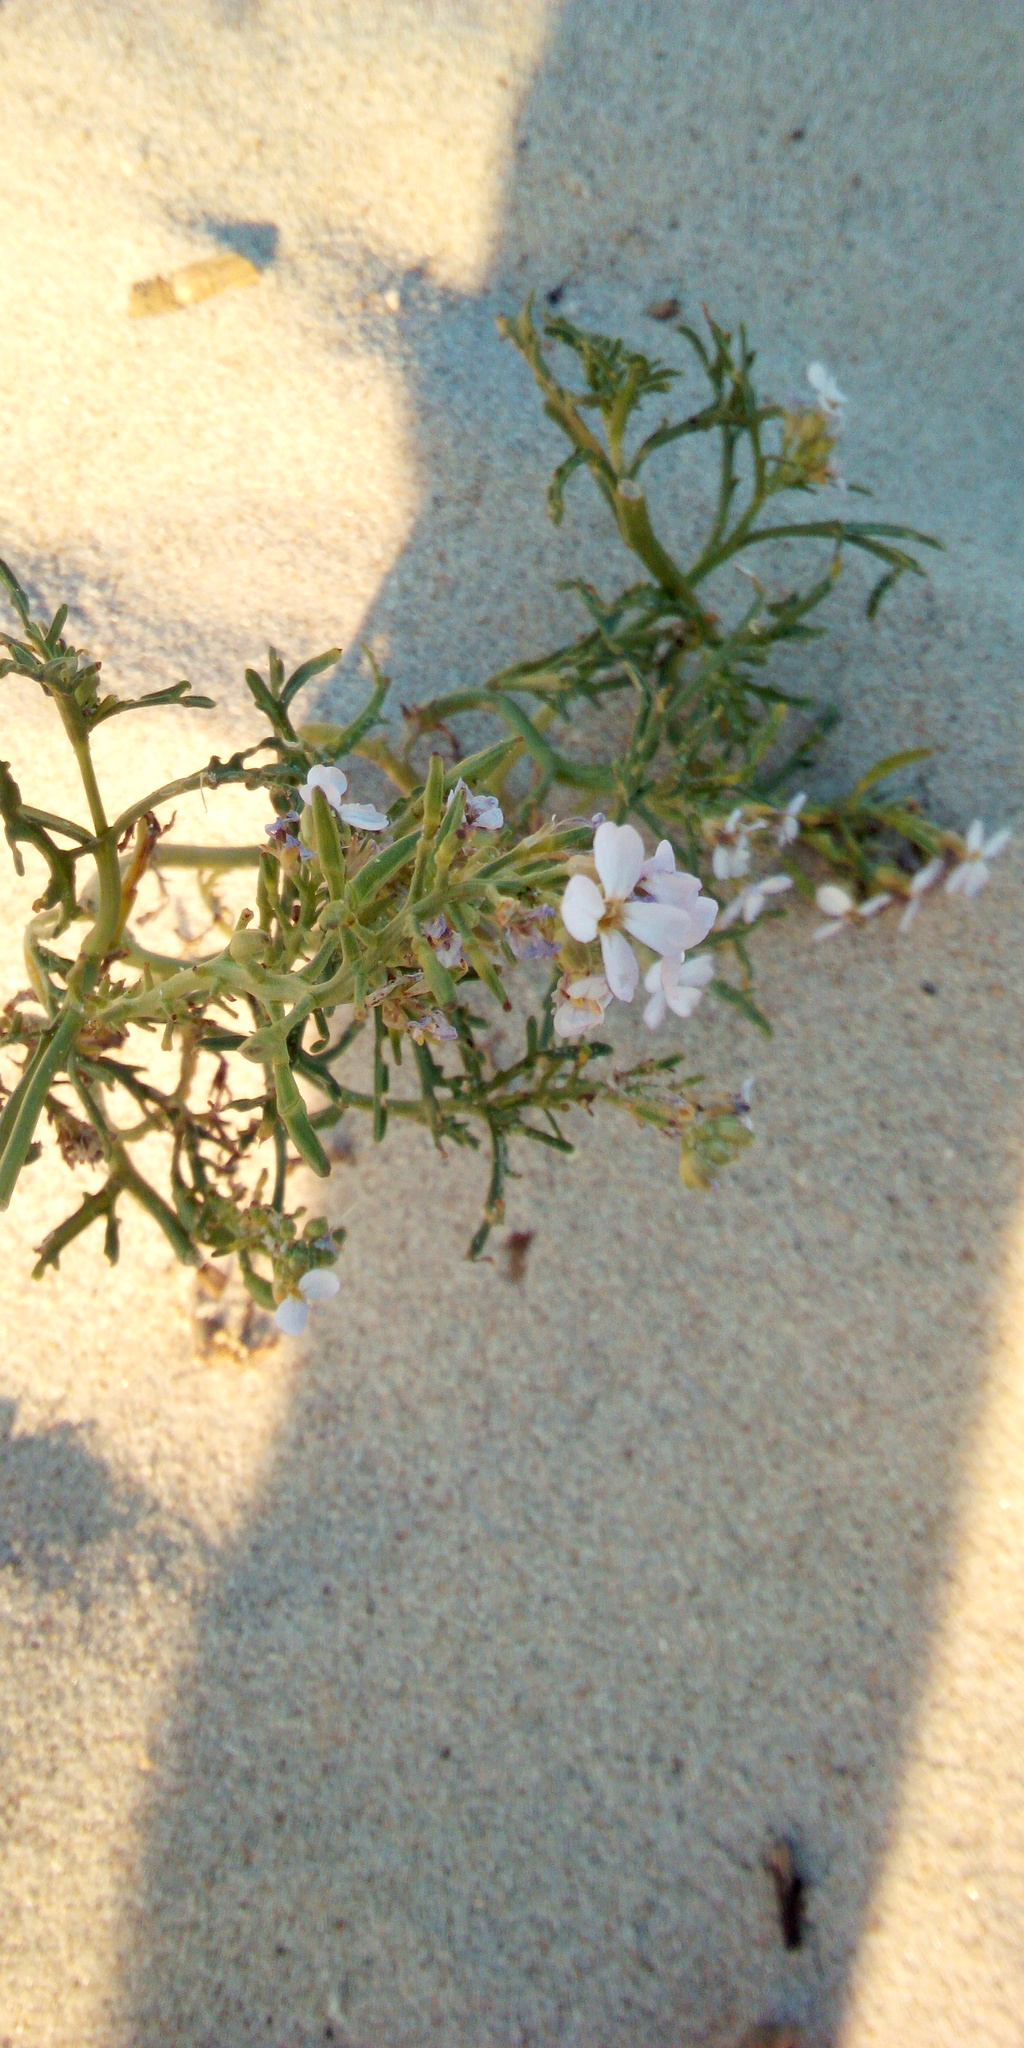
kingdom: Plantae
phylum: Tracheophyta
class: Magnoliopsida
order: Brassicales
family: Brassicaceae
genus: Cakile
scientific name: Cakile maritima
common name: Sea rocket
